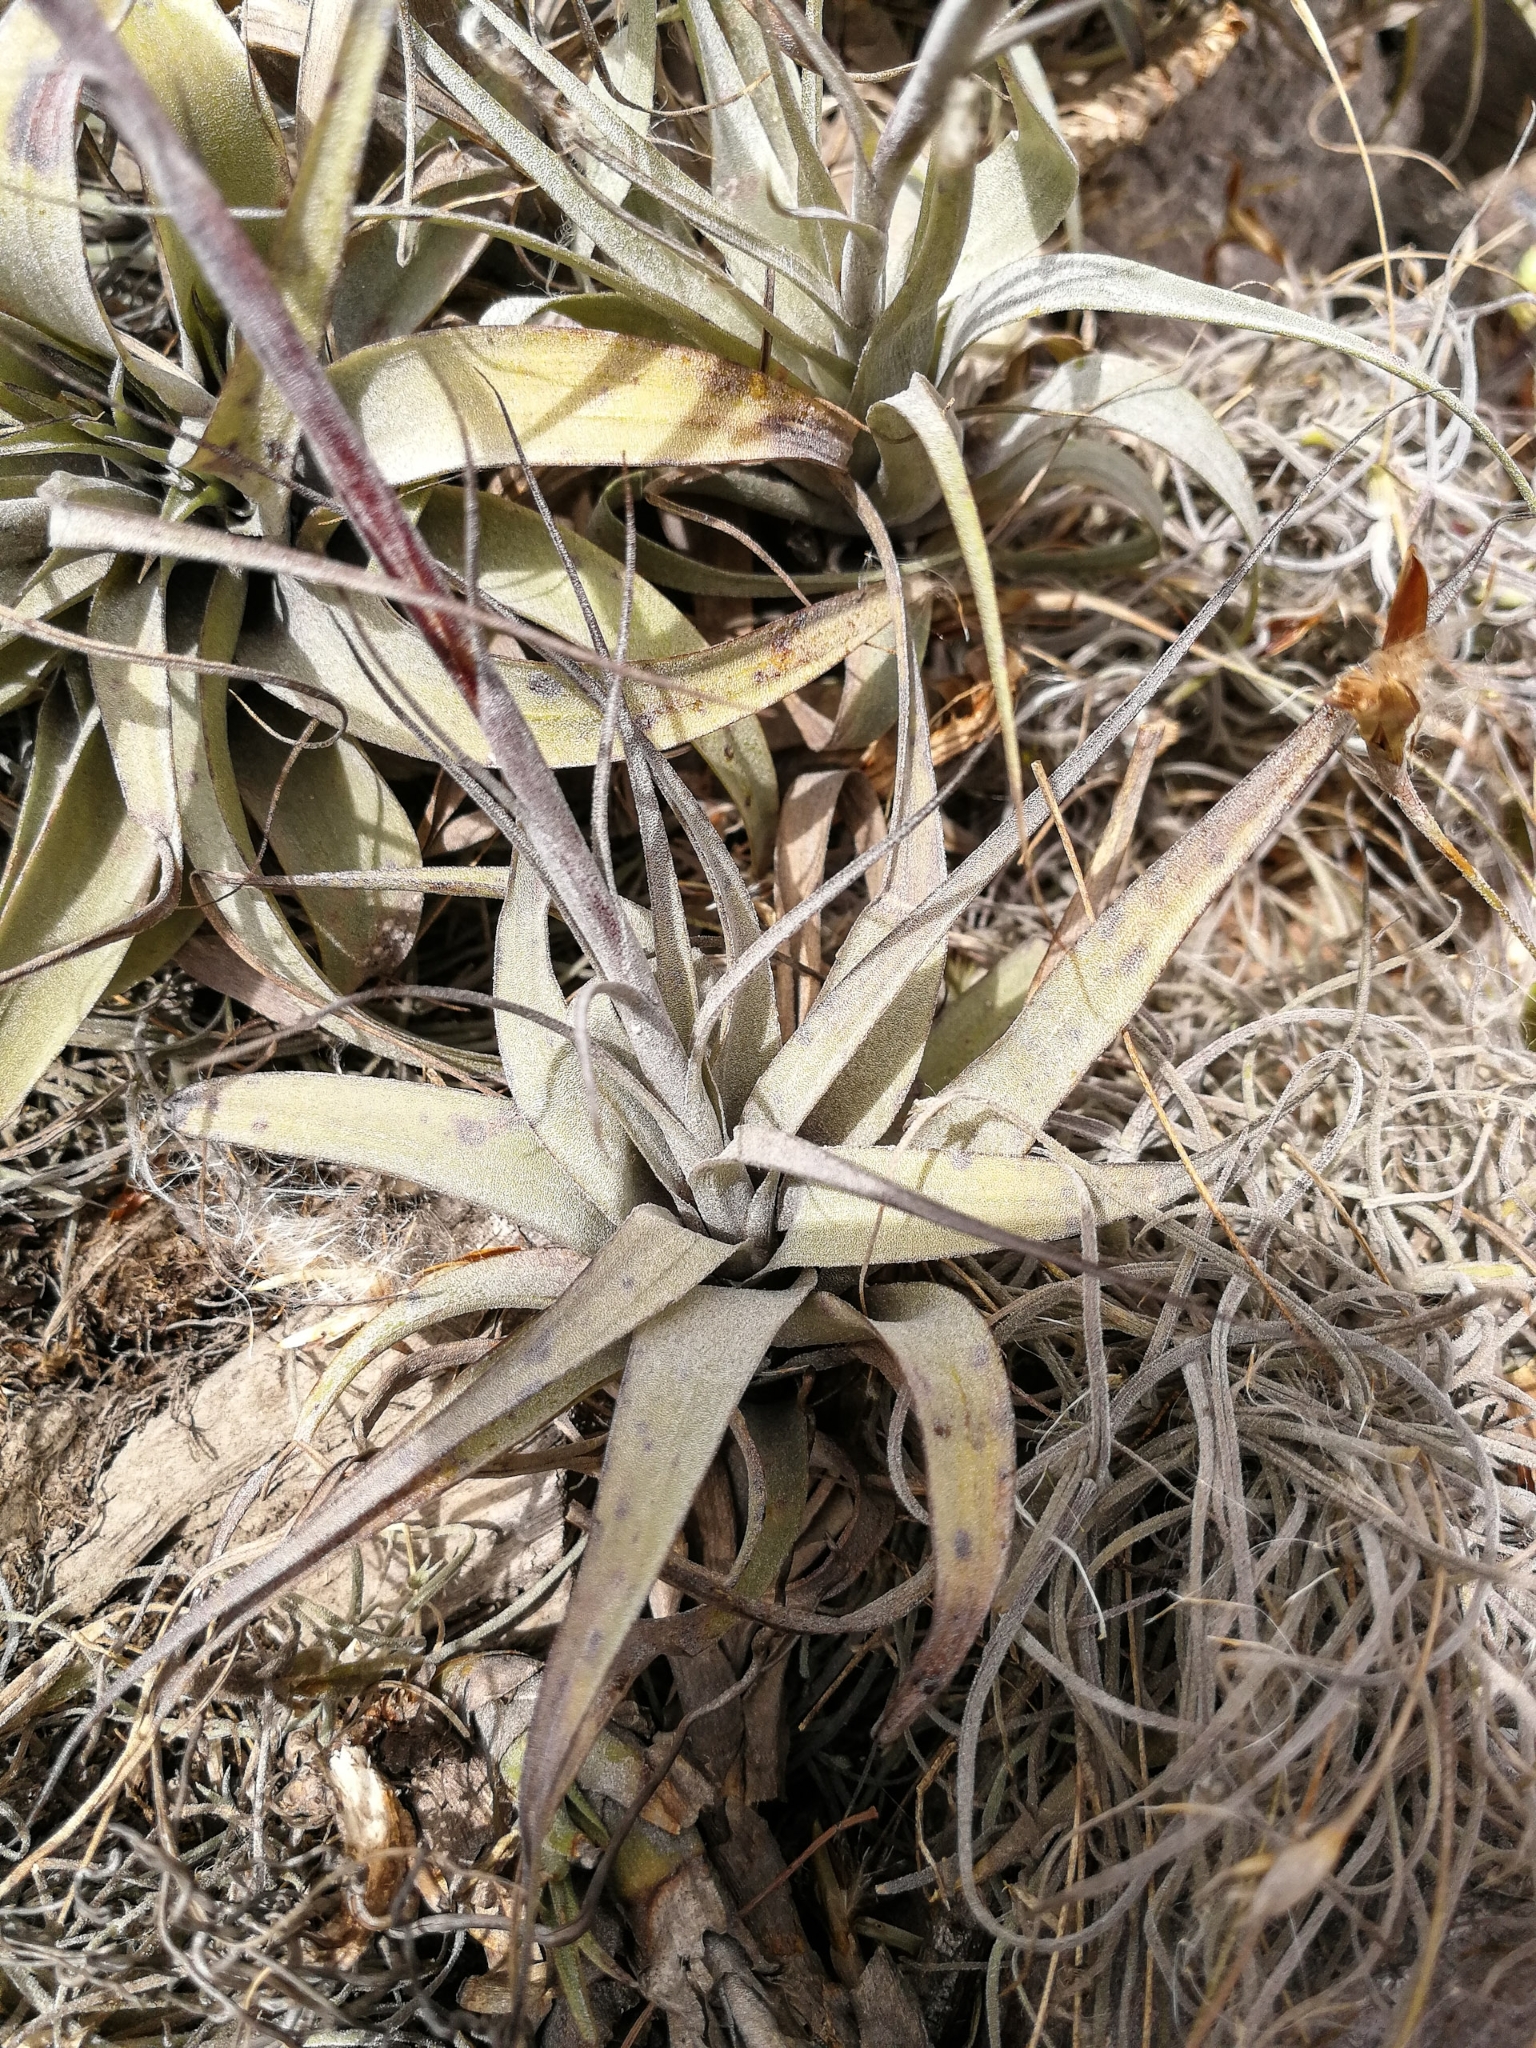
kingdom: Plantae
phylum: Tracheophyta
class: Liliopsida
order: Poales
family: Bromeliaceae
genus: Tillandsia
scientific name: Tillandsia incarnata
